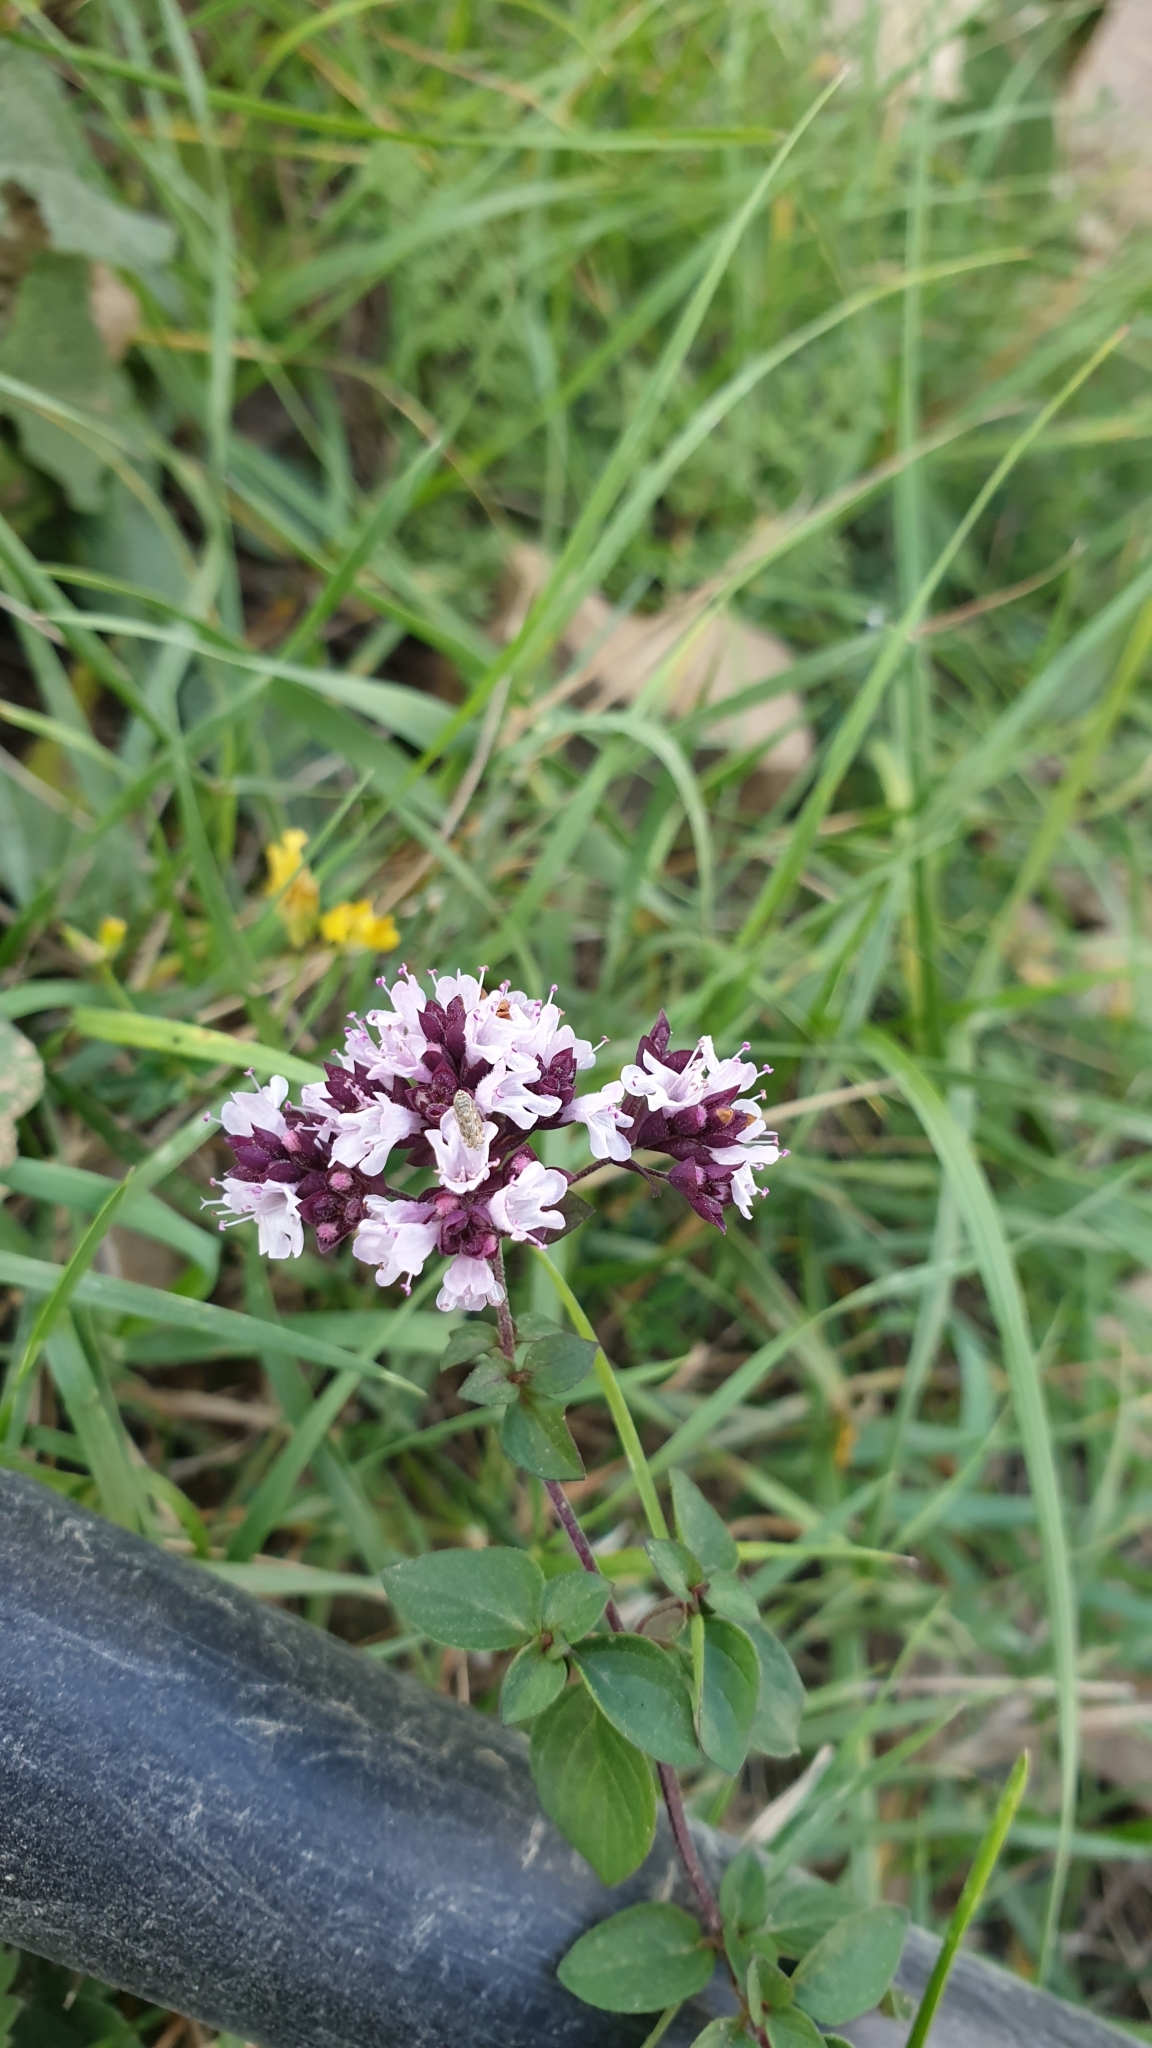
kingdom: Plantae
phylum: Tracheophyta
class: Magnoliopsida
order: Lamiales
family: Lamiaceae
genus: Origanum
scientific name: Origanum vulgare
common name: Wild marjoram
